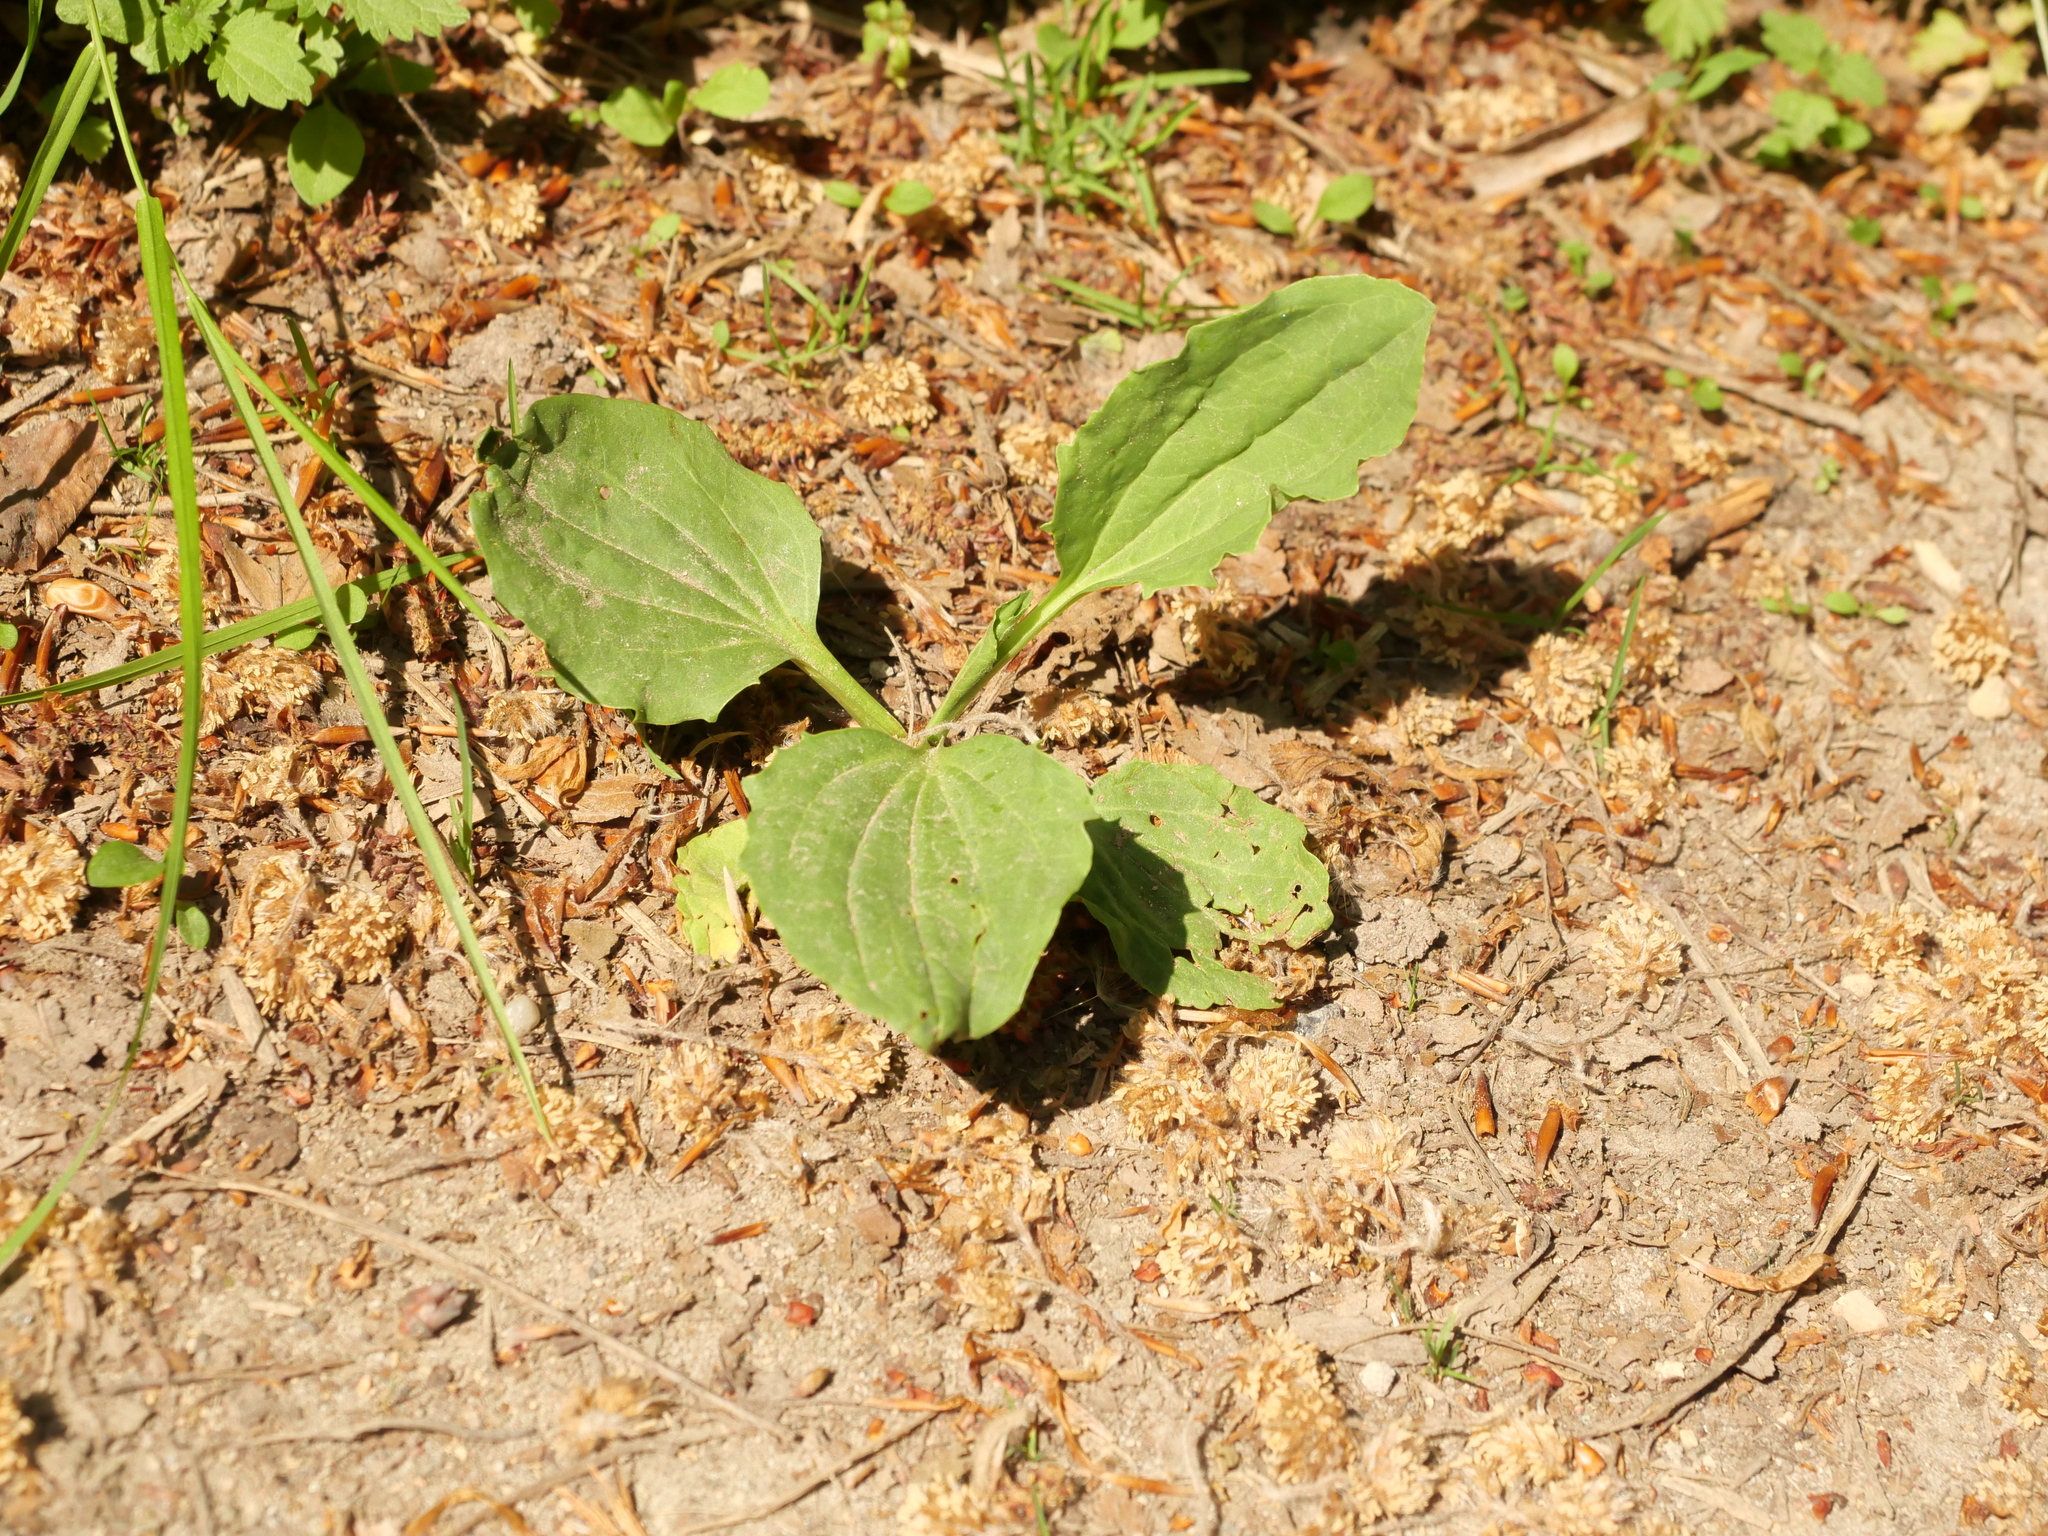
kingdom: Plantae
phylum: Tracheophyta
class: Magnoliopsida
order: Lamiales
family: Plantaginaceae
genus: Plantago
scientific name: Plantago major
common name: Common plantain
